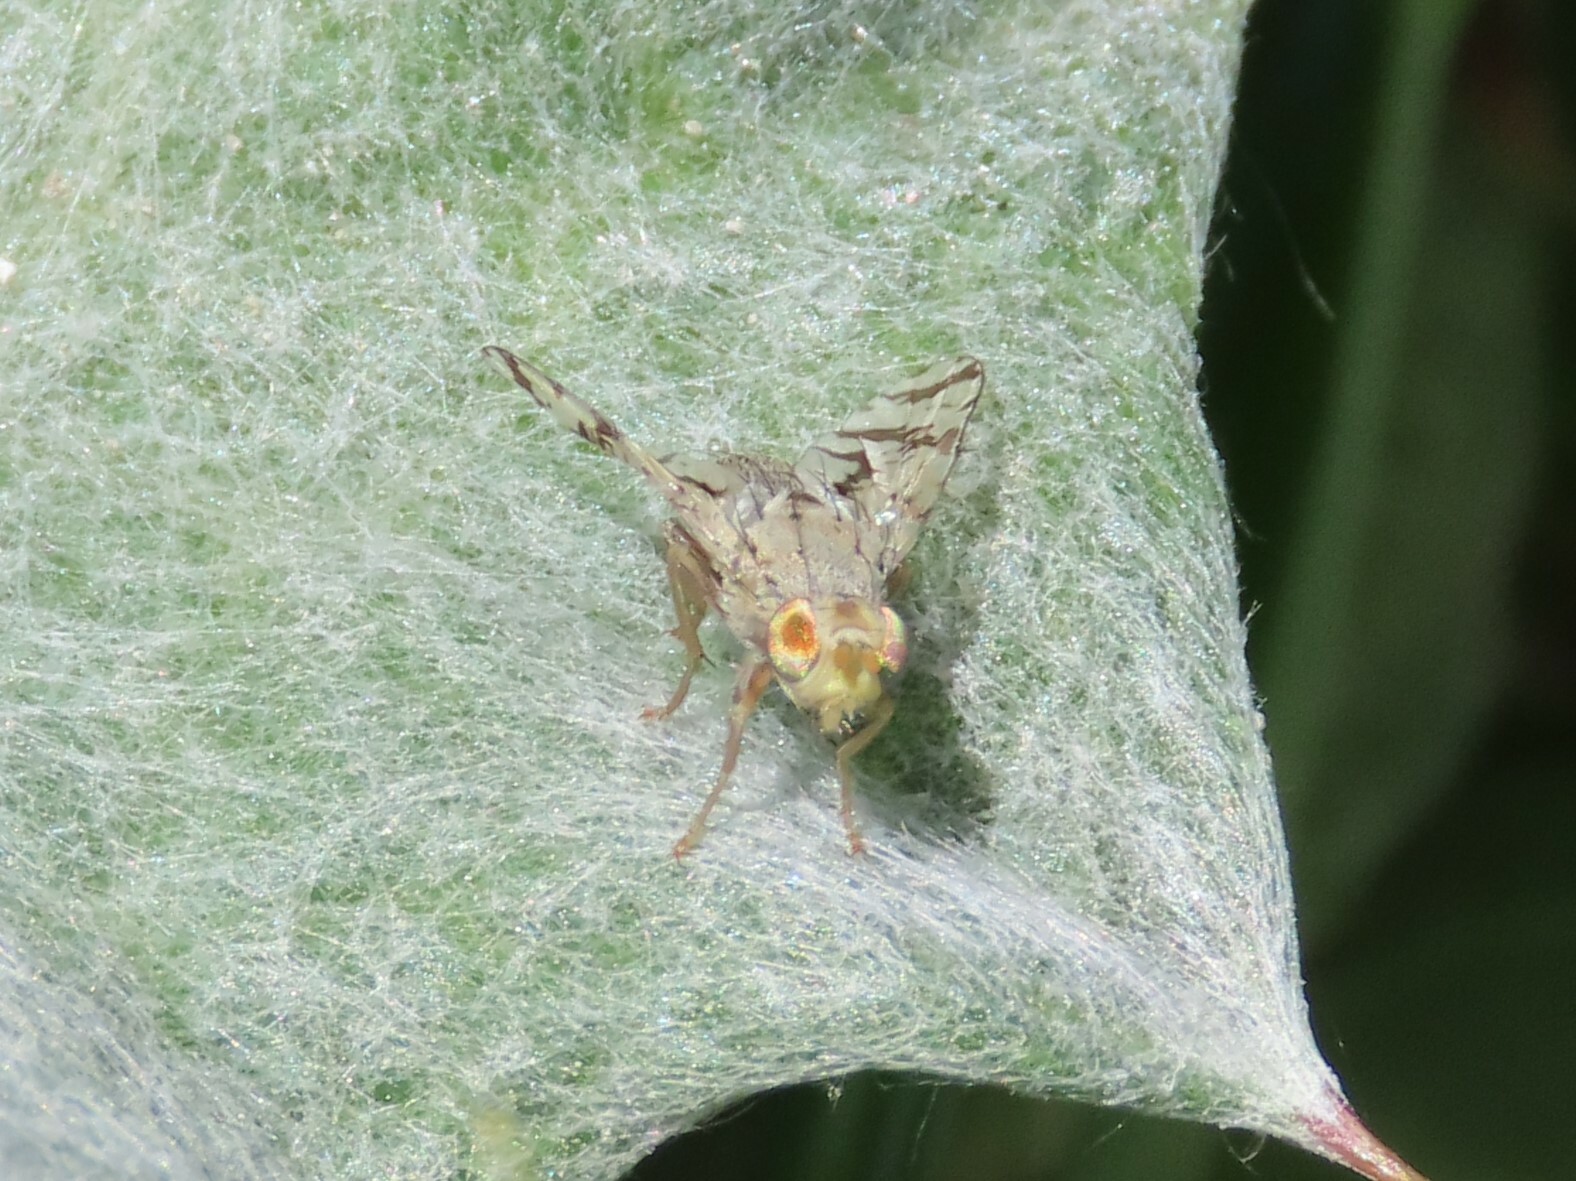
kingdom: Animalia
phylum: Arthropoda
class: Insecta
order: Diptera
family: Tephritidae
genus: Tephritis
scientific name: Tephritis postica
